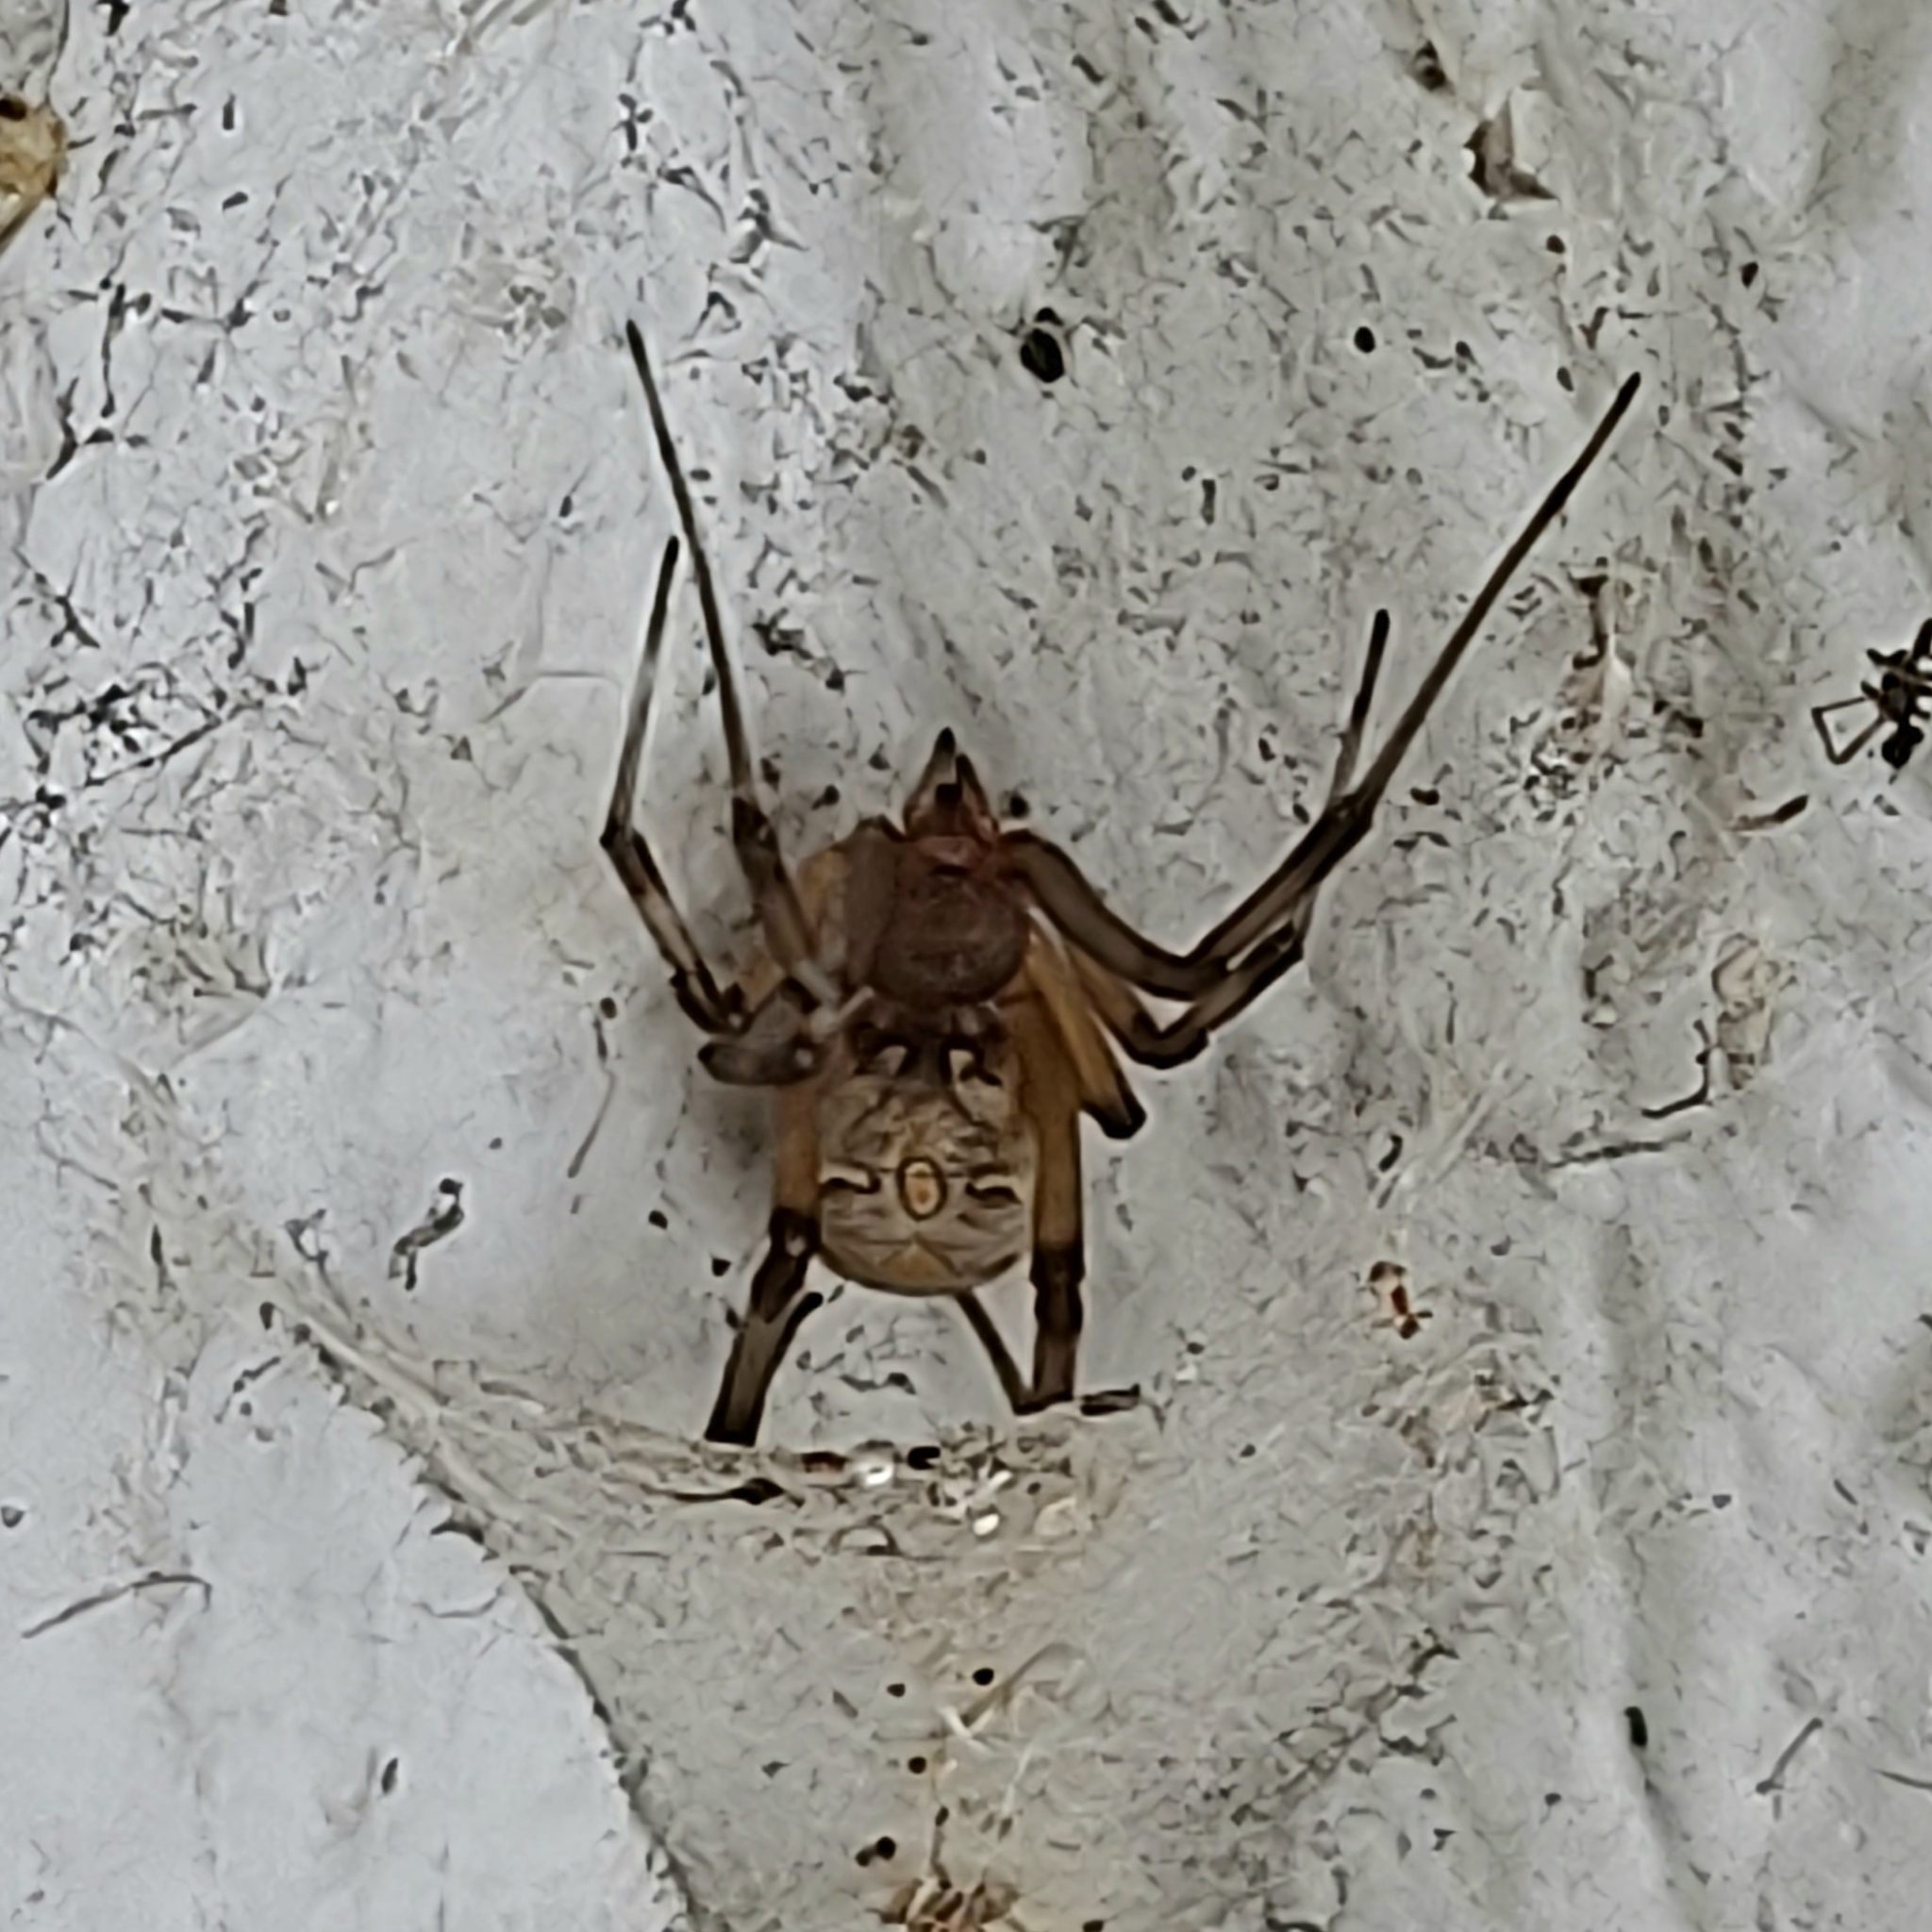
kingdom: Animalia
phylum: Arthropoda
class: Arachnida
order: Araneae
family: Theridiidae
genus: Latrodectus
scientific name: Latrodectus geometricus
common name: Brown widow spider
